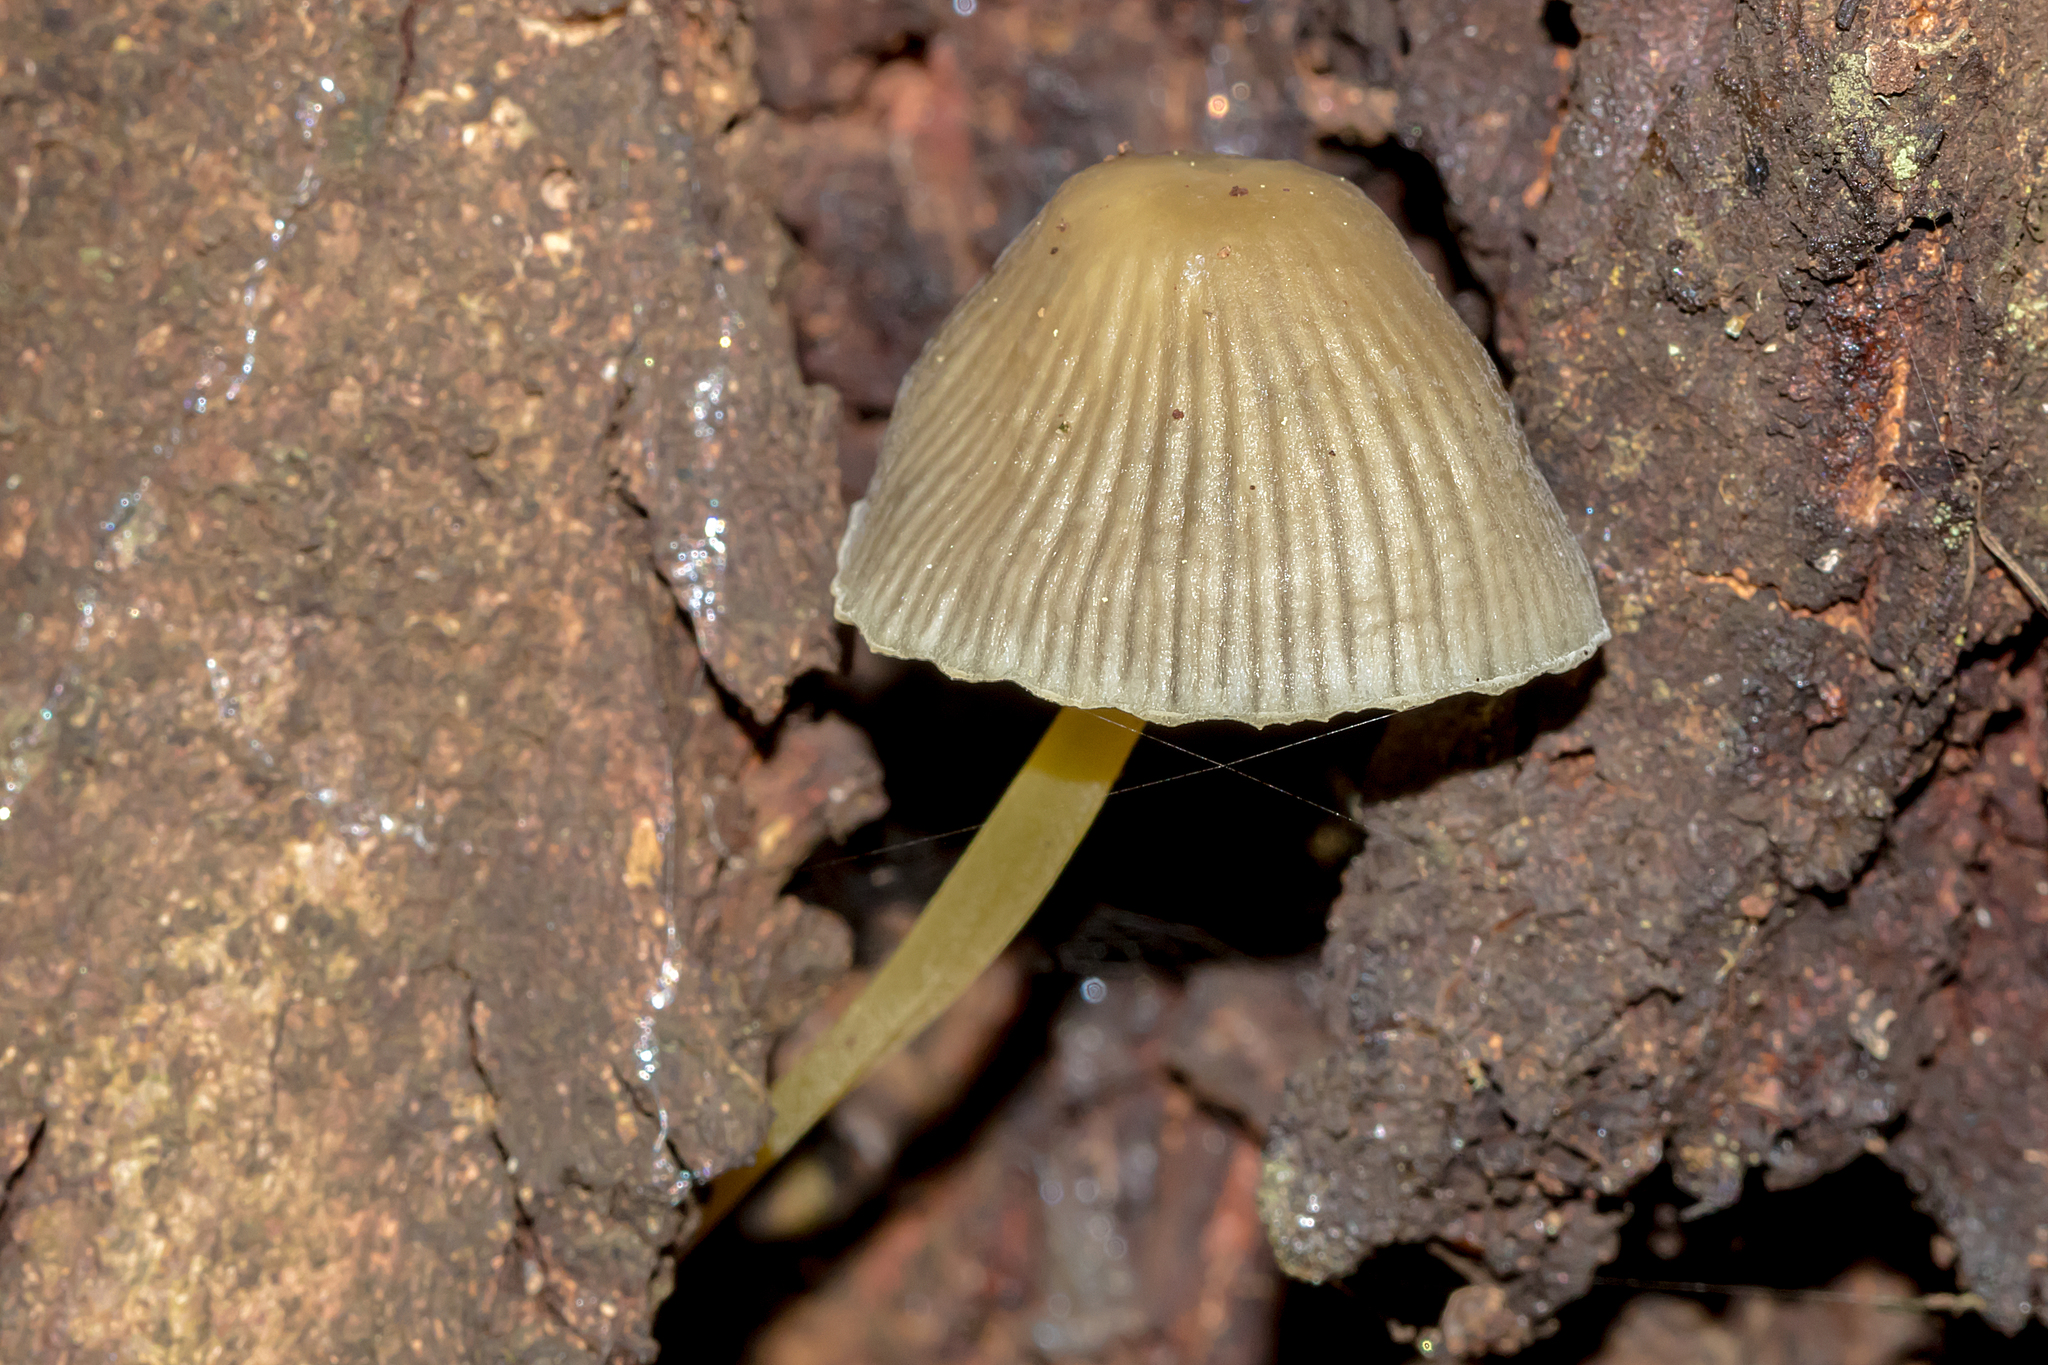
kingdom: Fungi
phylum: Basidiomycota
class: Agaricomycetes
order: Agaricales
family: Mycenaceae
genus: Mycena
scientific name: Mycena epipterygia
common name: Yellowleg bonnet
